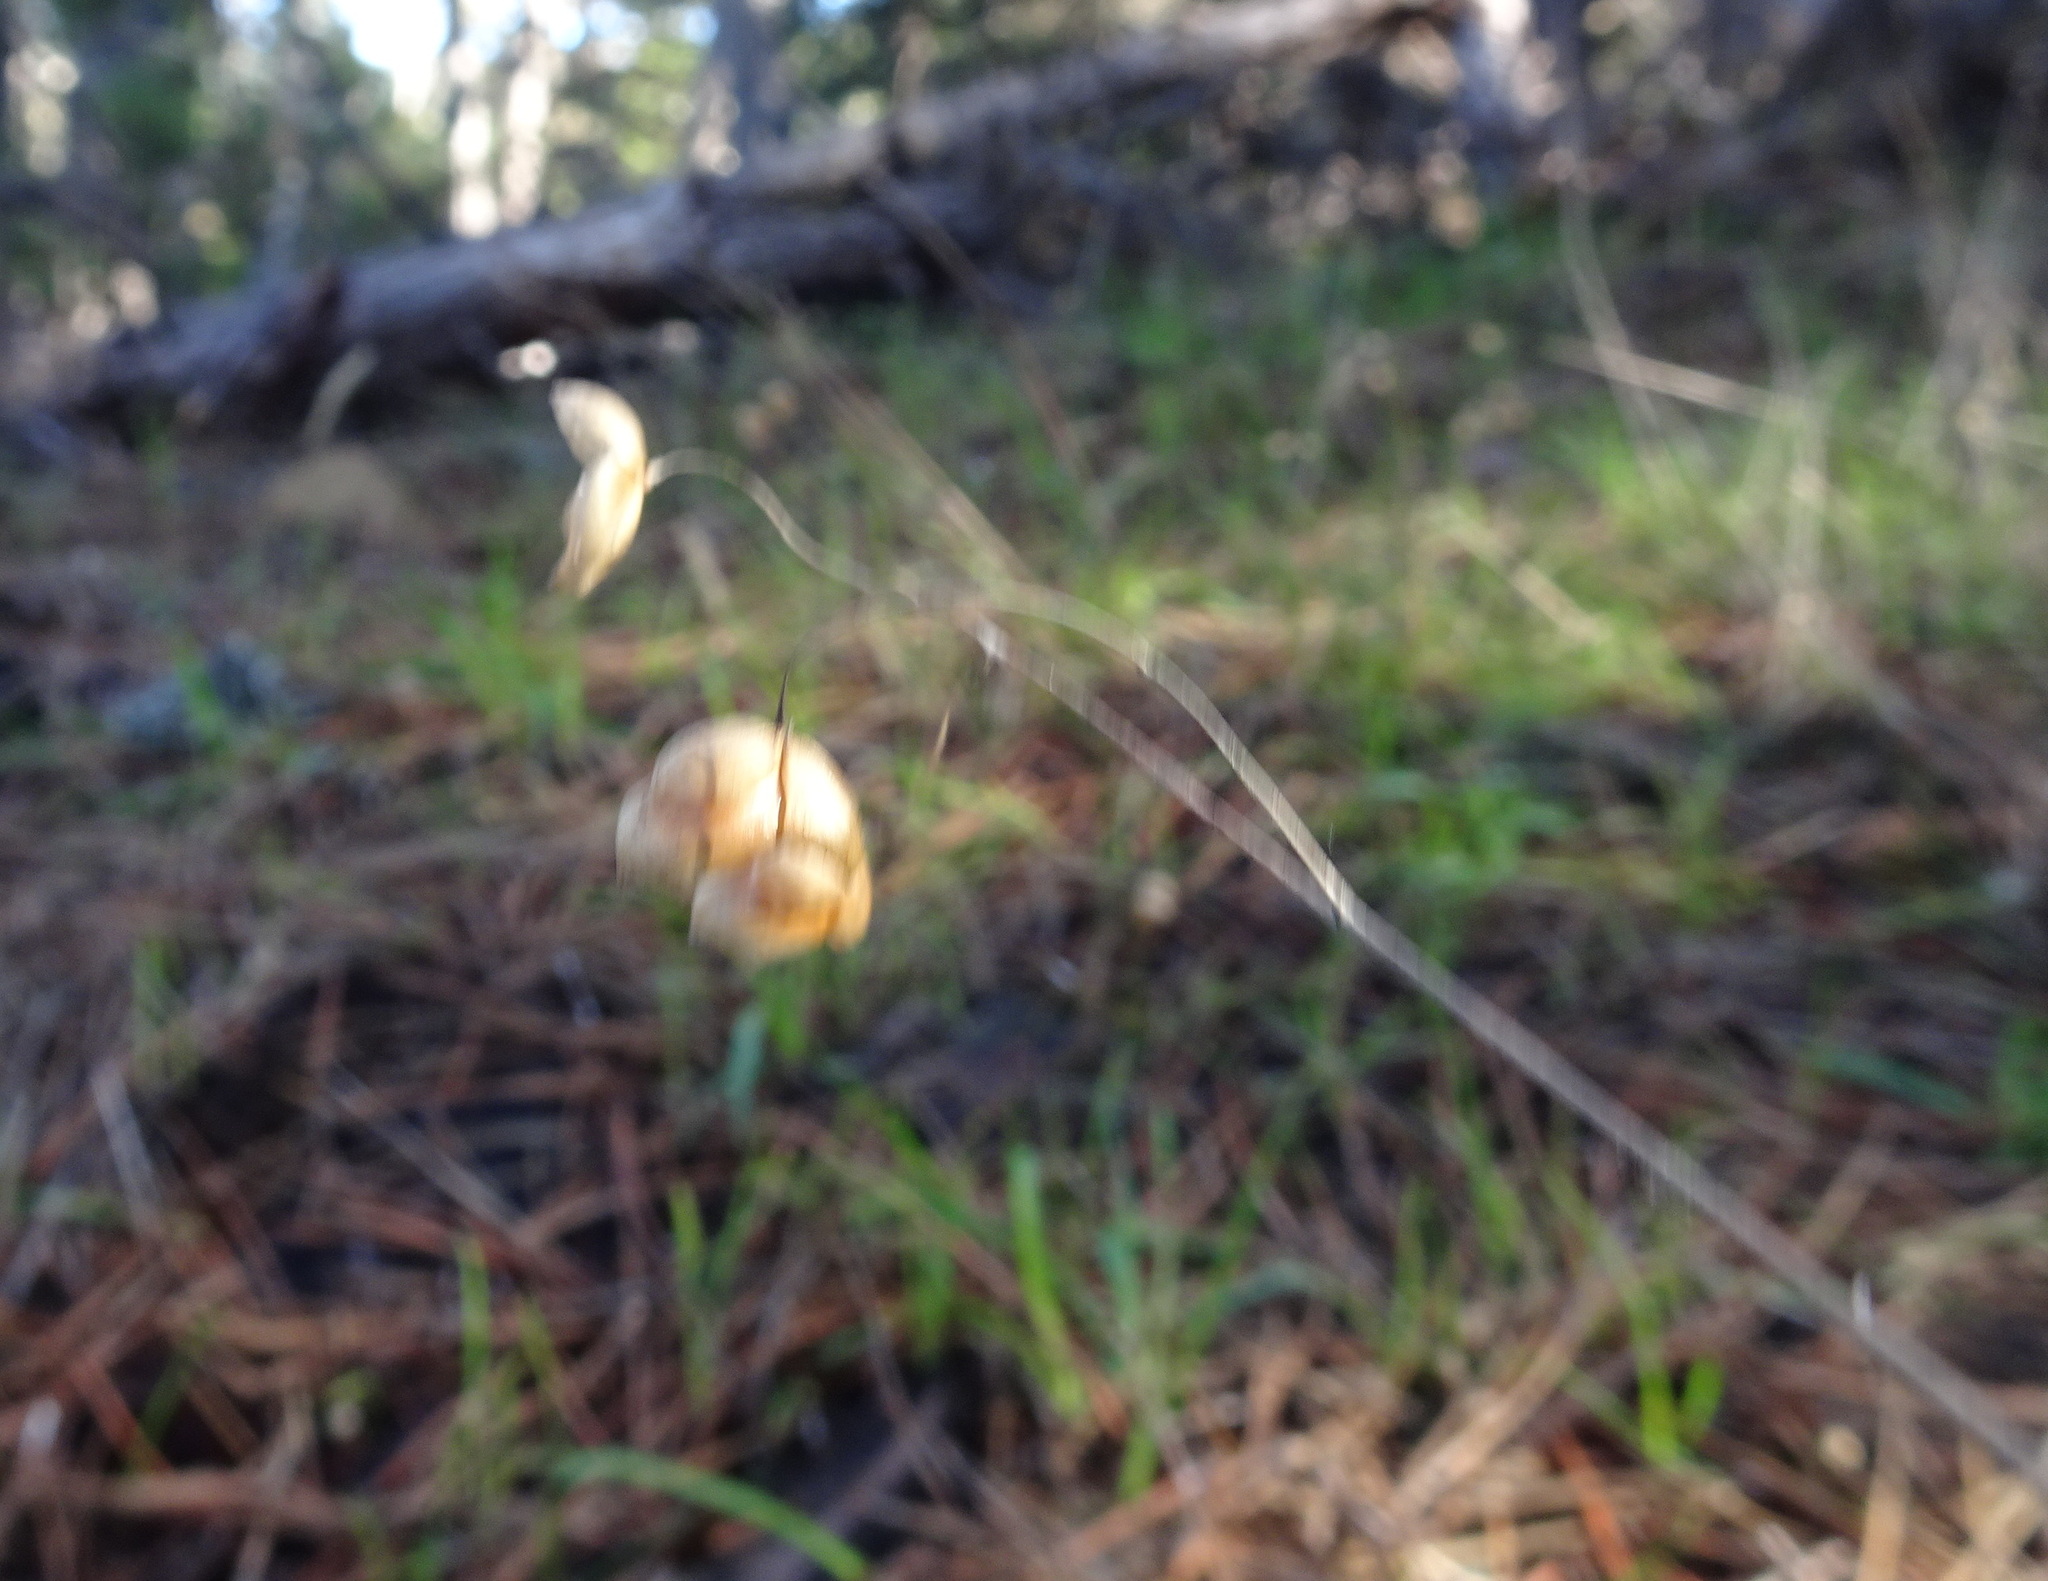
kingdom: Plantae
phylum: Tracheophyta
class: Liliopsida
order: Poales
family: Poaceae
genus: Briza
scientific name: Briza maxima
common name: Big quakinggrass
